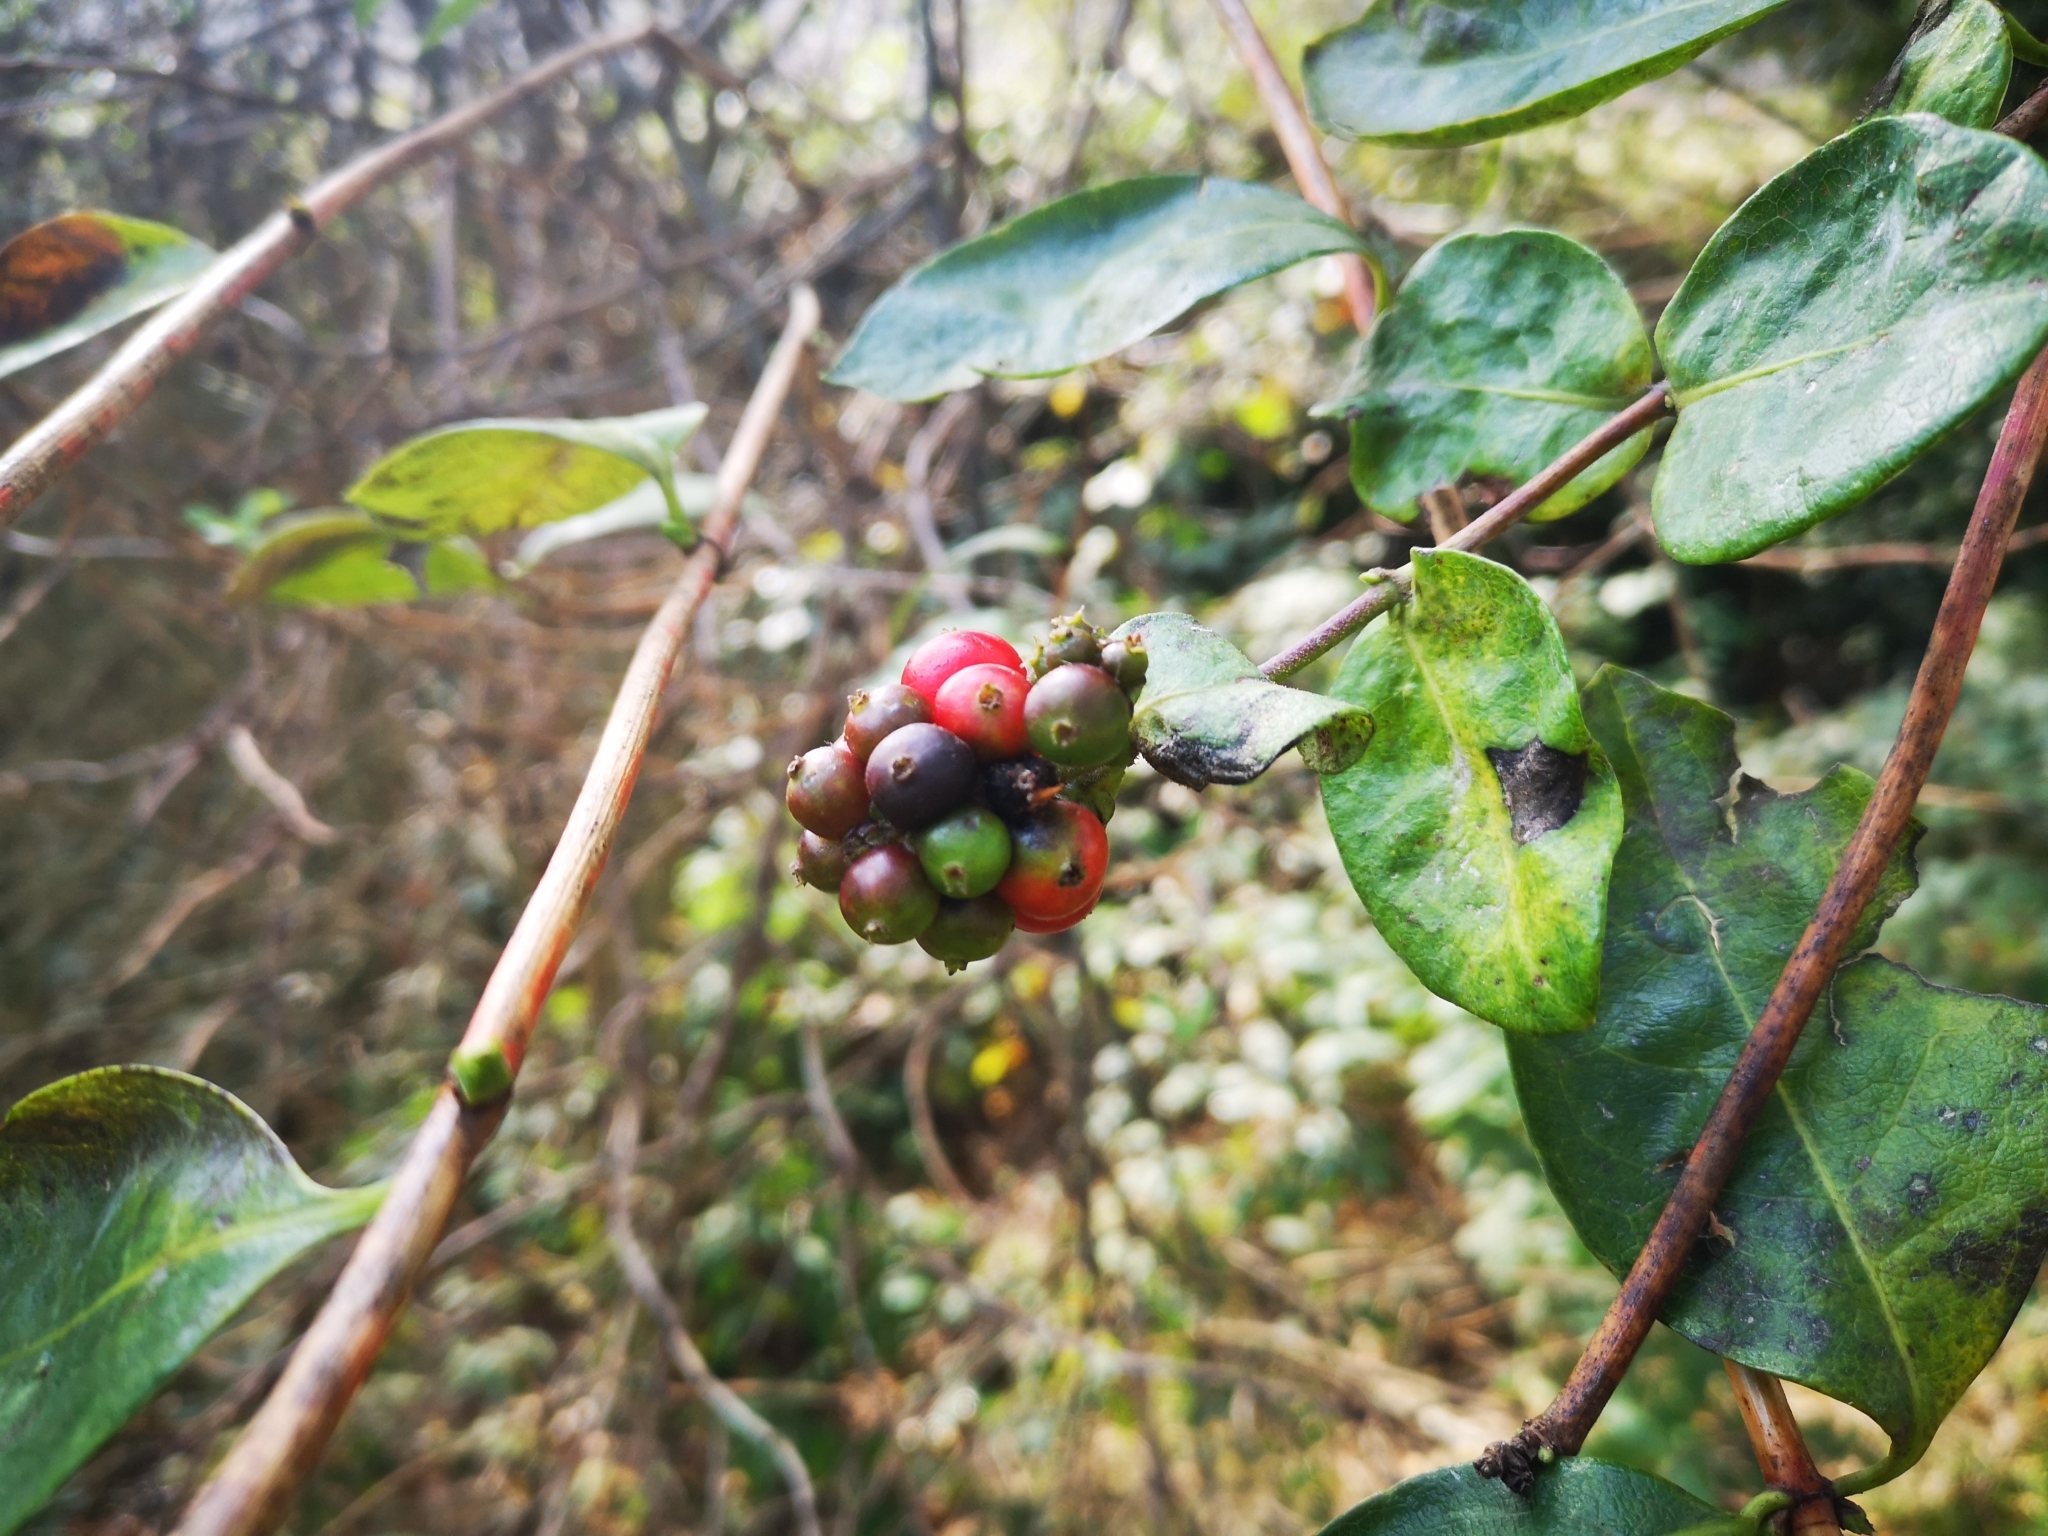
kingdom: Plantae
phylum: Tracheophyta
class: Magnoliopsida
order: Dipsacales
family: Caprifoliaceae
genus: Lonicera
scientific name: Lonicera periclymenum
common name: European honeysuckle
